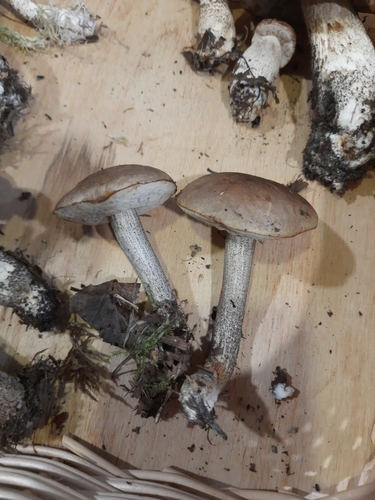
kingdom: Fungi
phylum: Basidiomycota
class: Agaricomycetes
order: Boletales
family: Boletaceae
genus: Leccinum
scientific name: Leccinum
